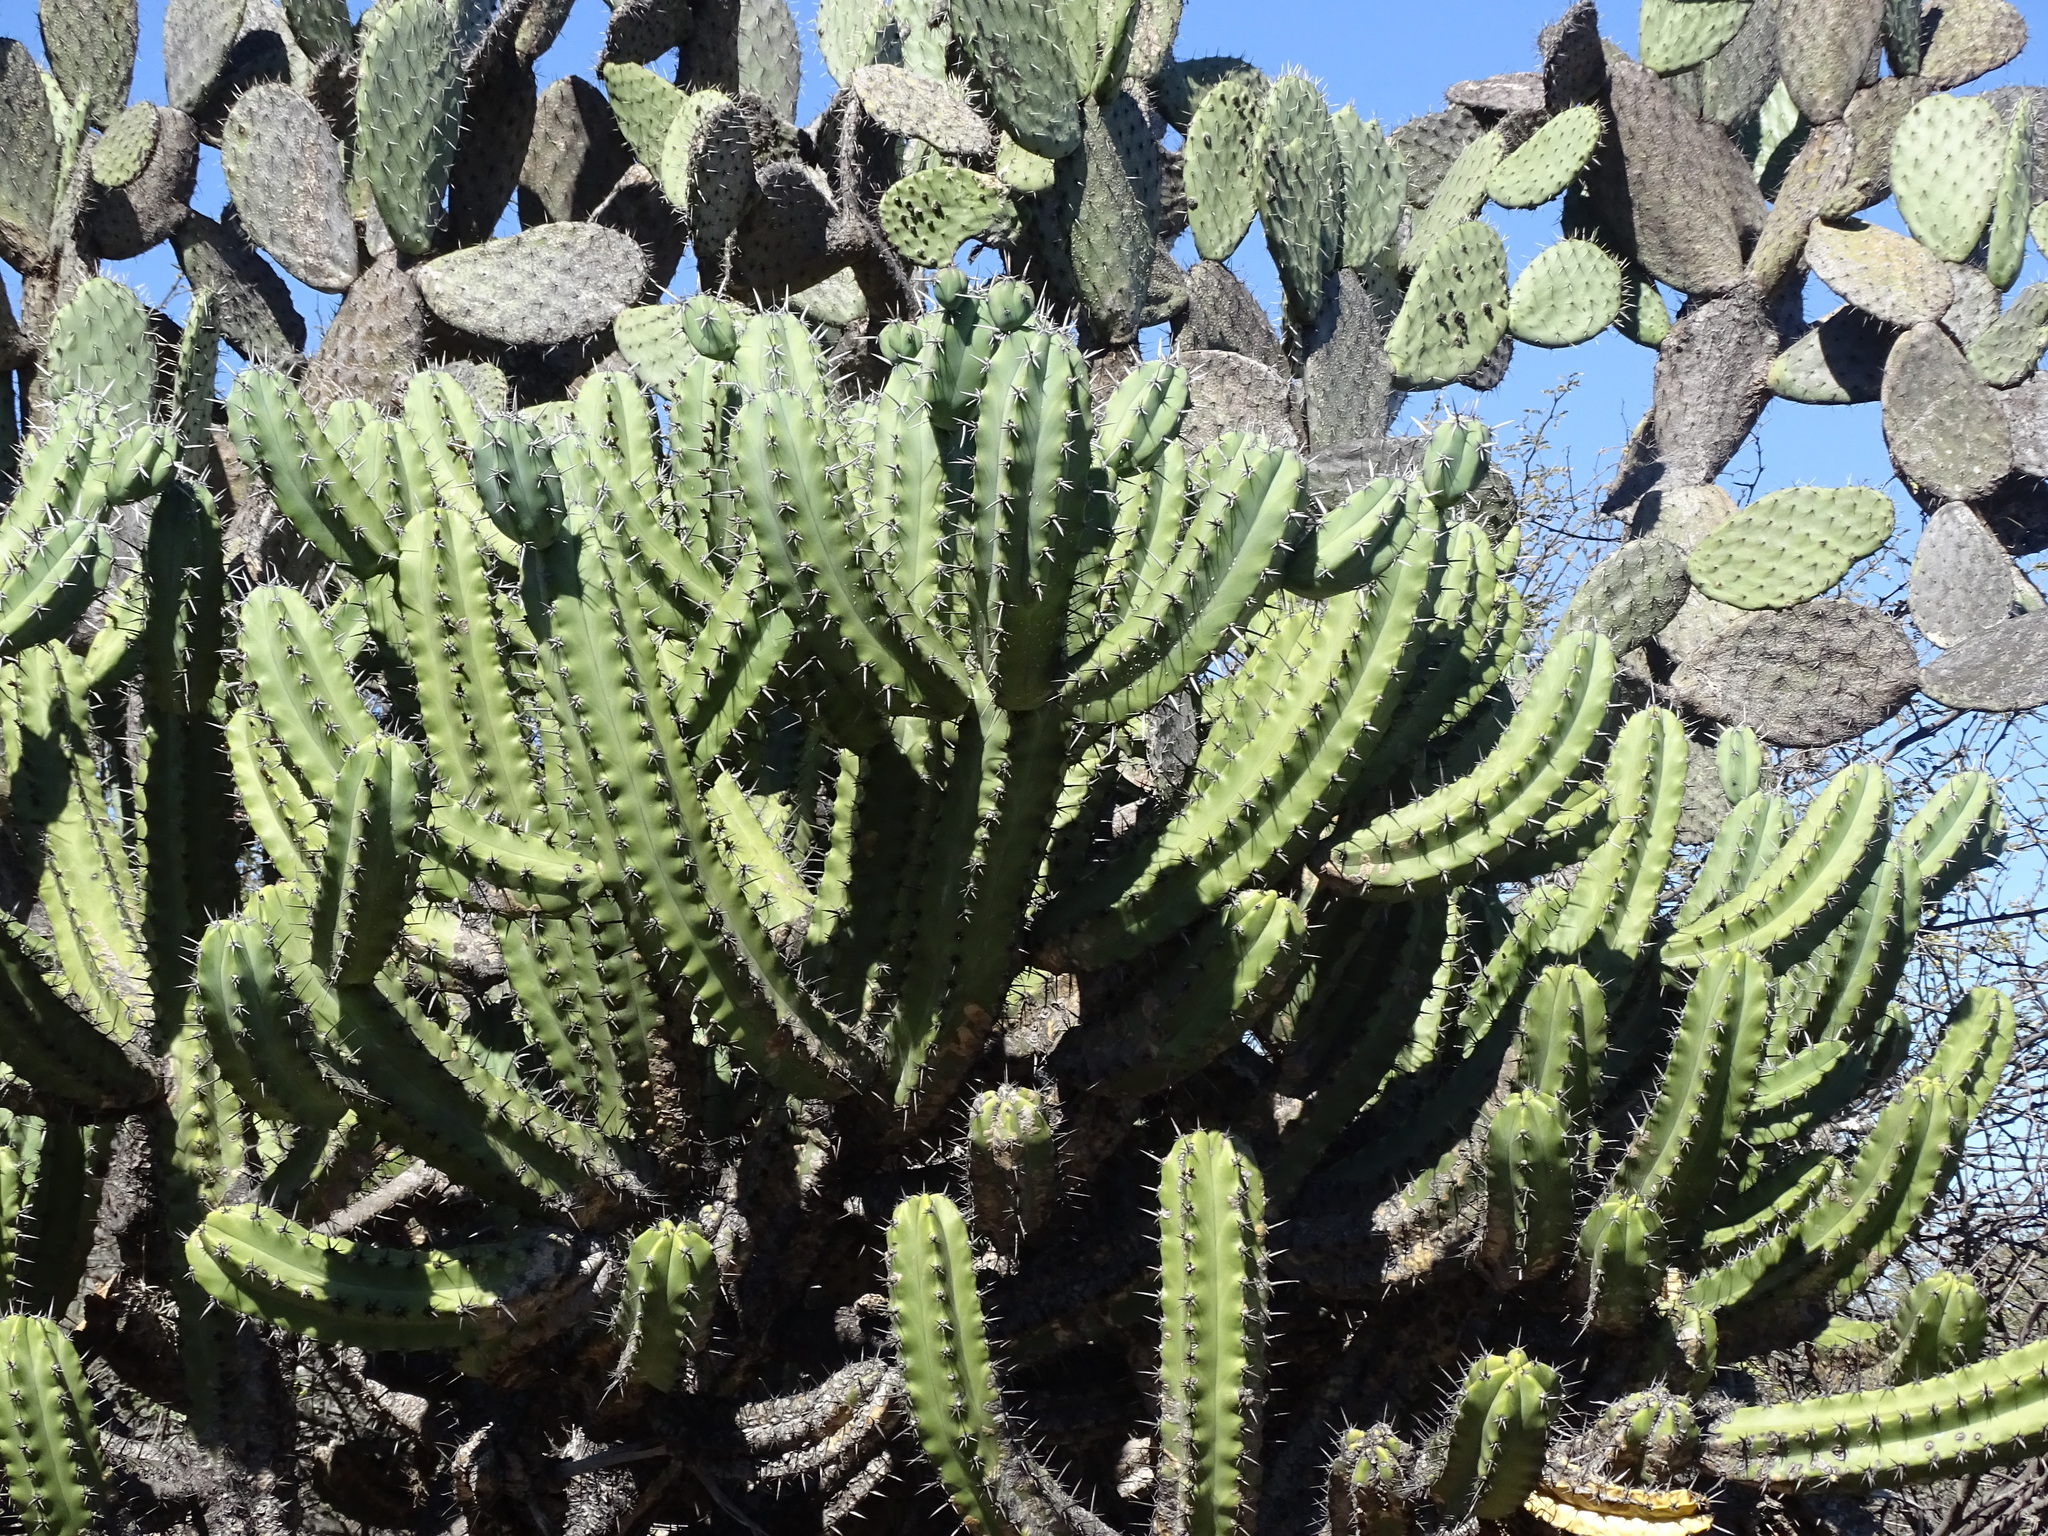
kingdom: Plantae
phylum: Tracheophyta
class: Magnoliopsida
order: Caryophyllales
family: Cactaceae
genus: Myrtillocactus
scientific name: Myrtillocactus geometrizans
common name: Bilberry cactus
